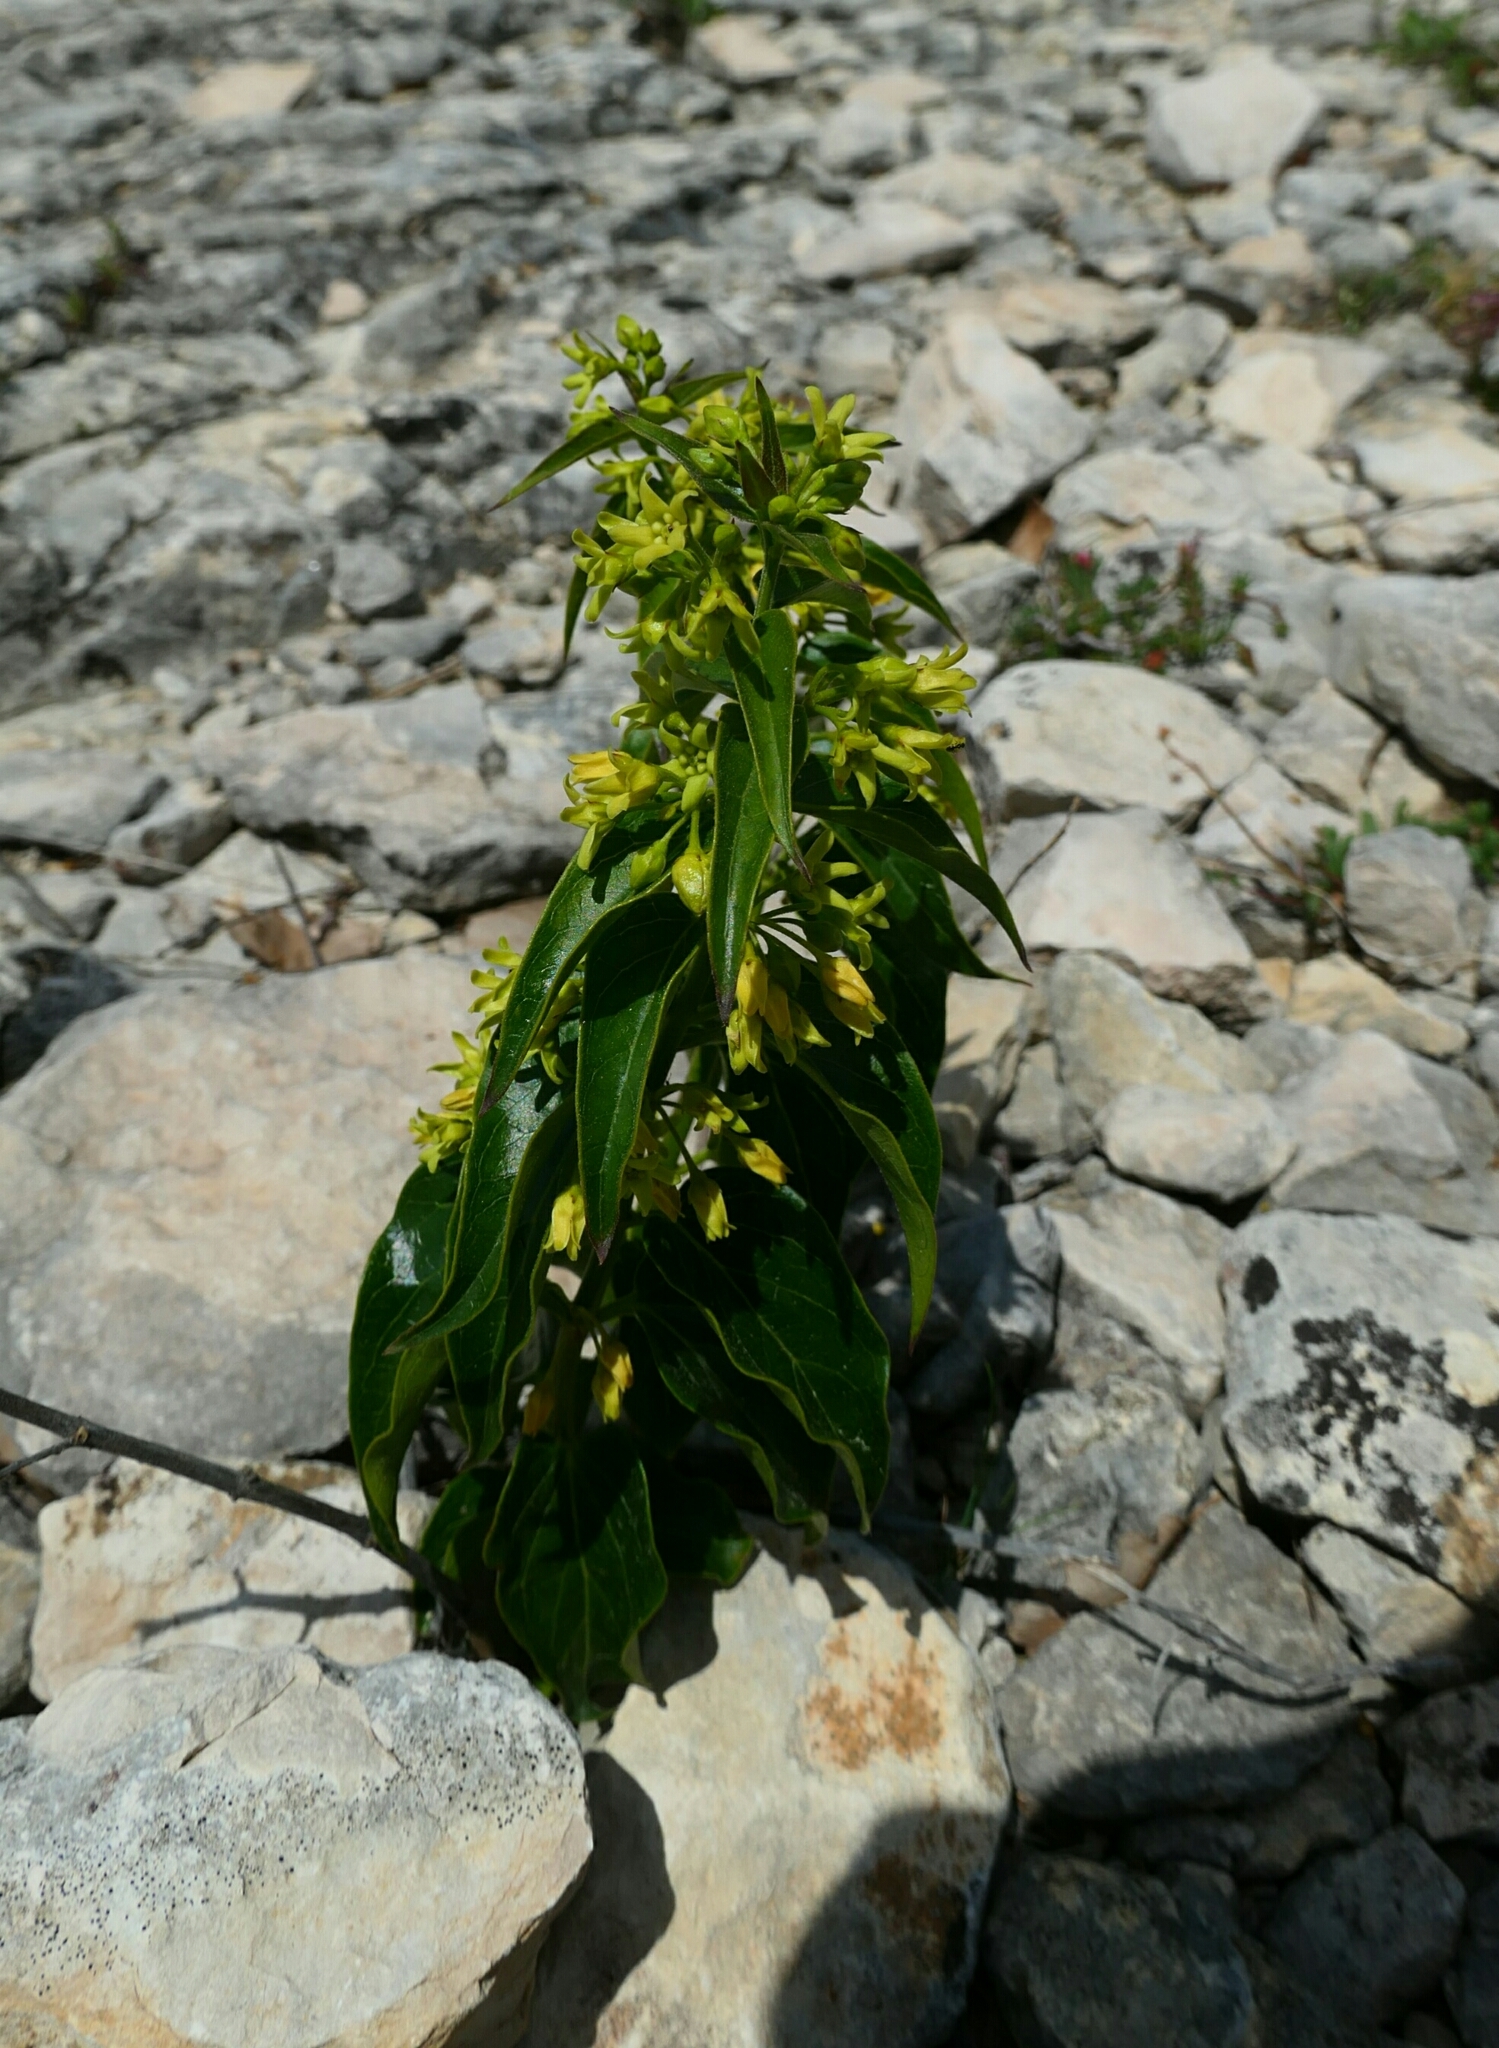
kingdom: Plantae
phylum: Tracheophyta
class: Magnoliopsida
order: Gentianales
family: Apocynaceae
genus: Vincetoxicum
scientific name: Vincetoxicum hirundinaria
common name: White swallowwort
